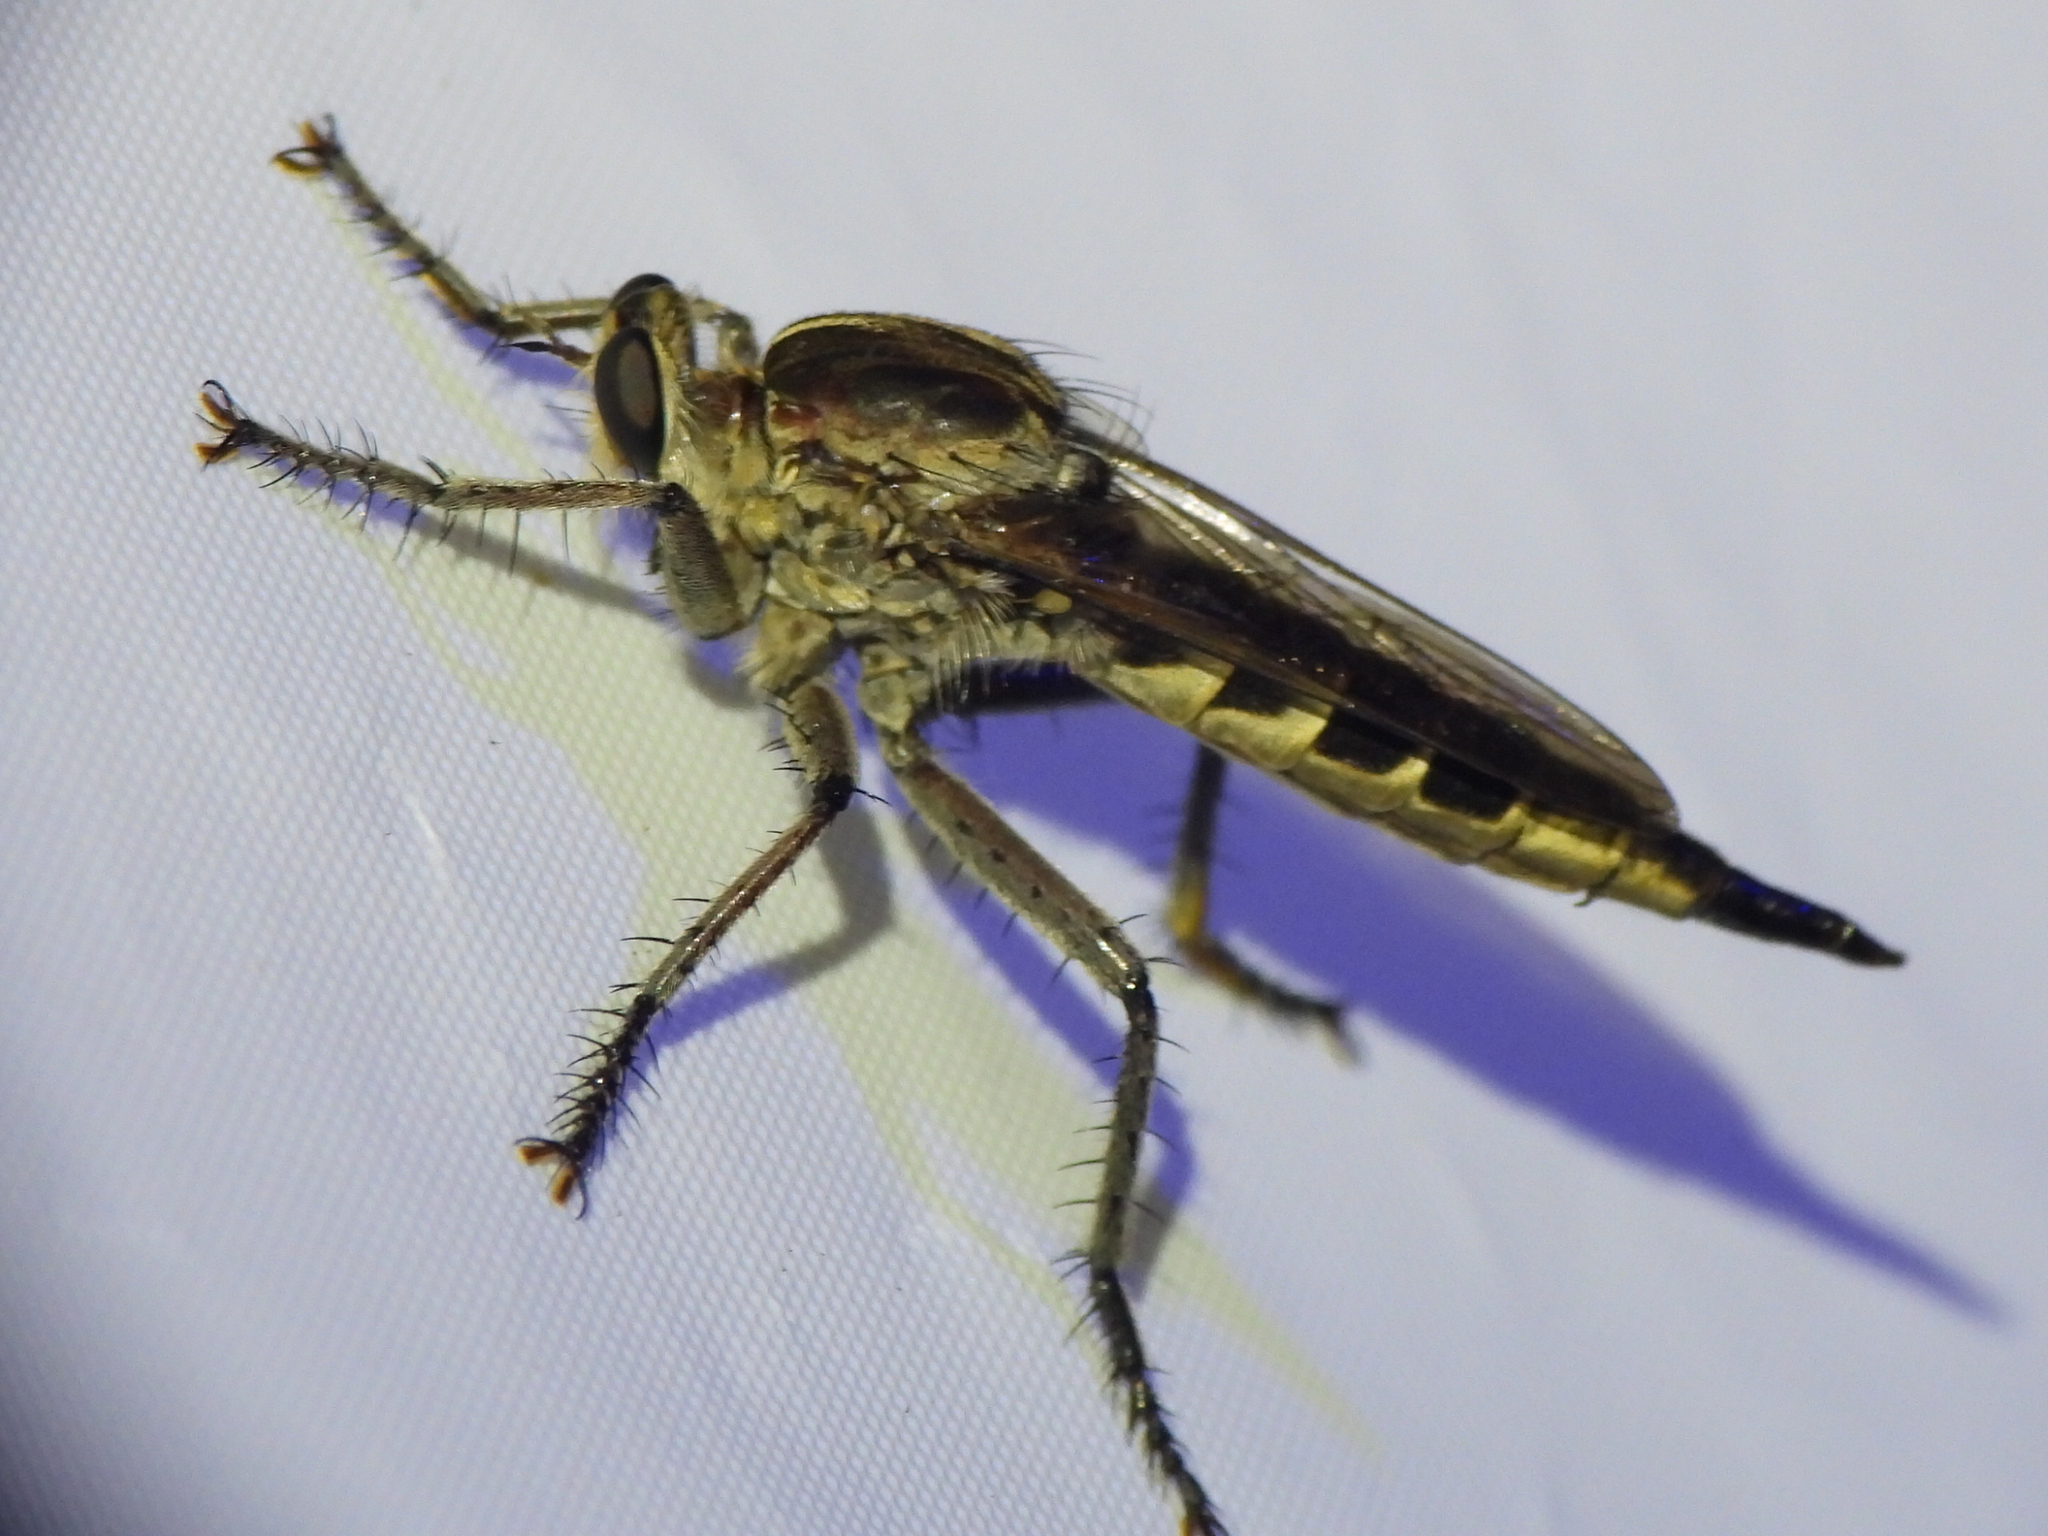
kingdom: Animalia
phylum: Arthropoda
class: Insecta
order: Diptera
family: Asilidae
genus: Triorla
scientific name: Triorla interrupta
